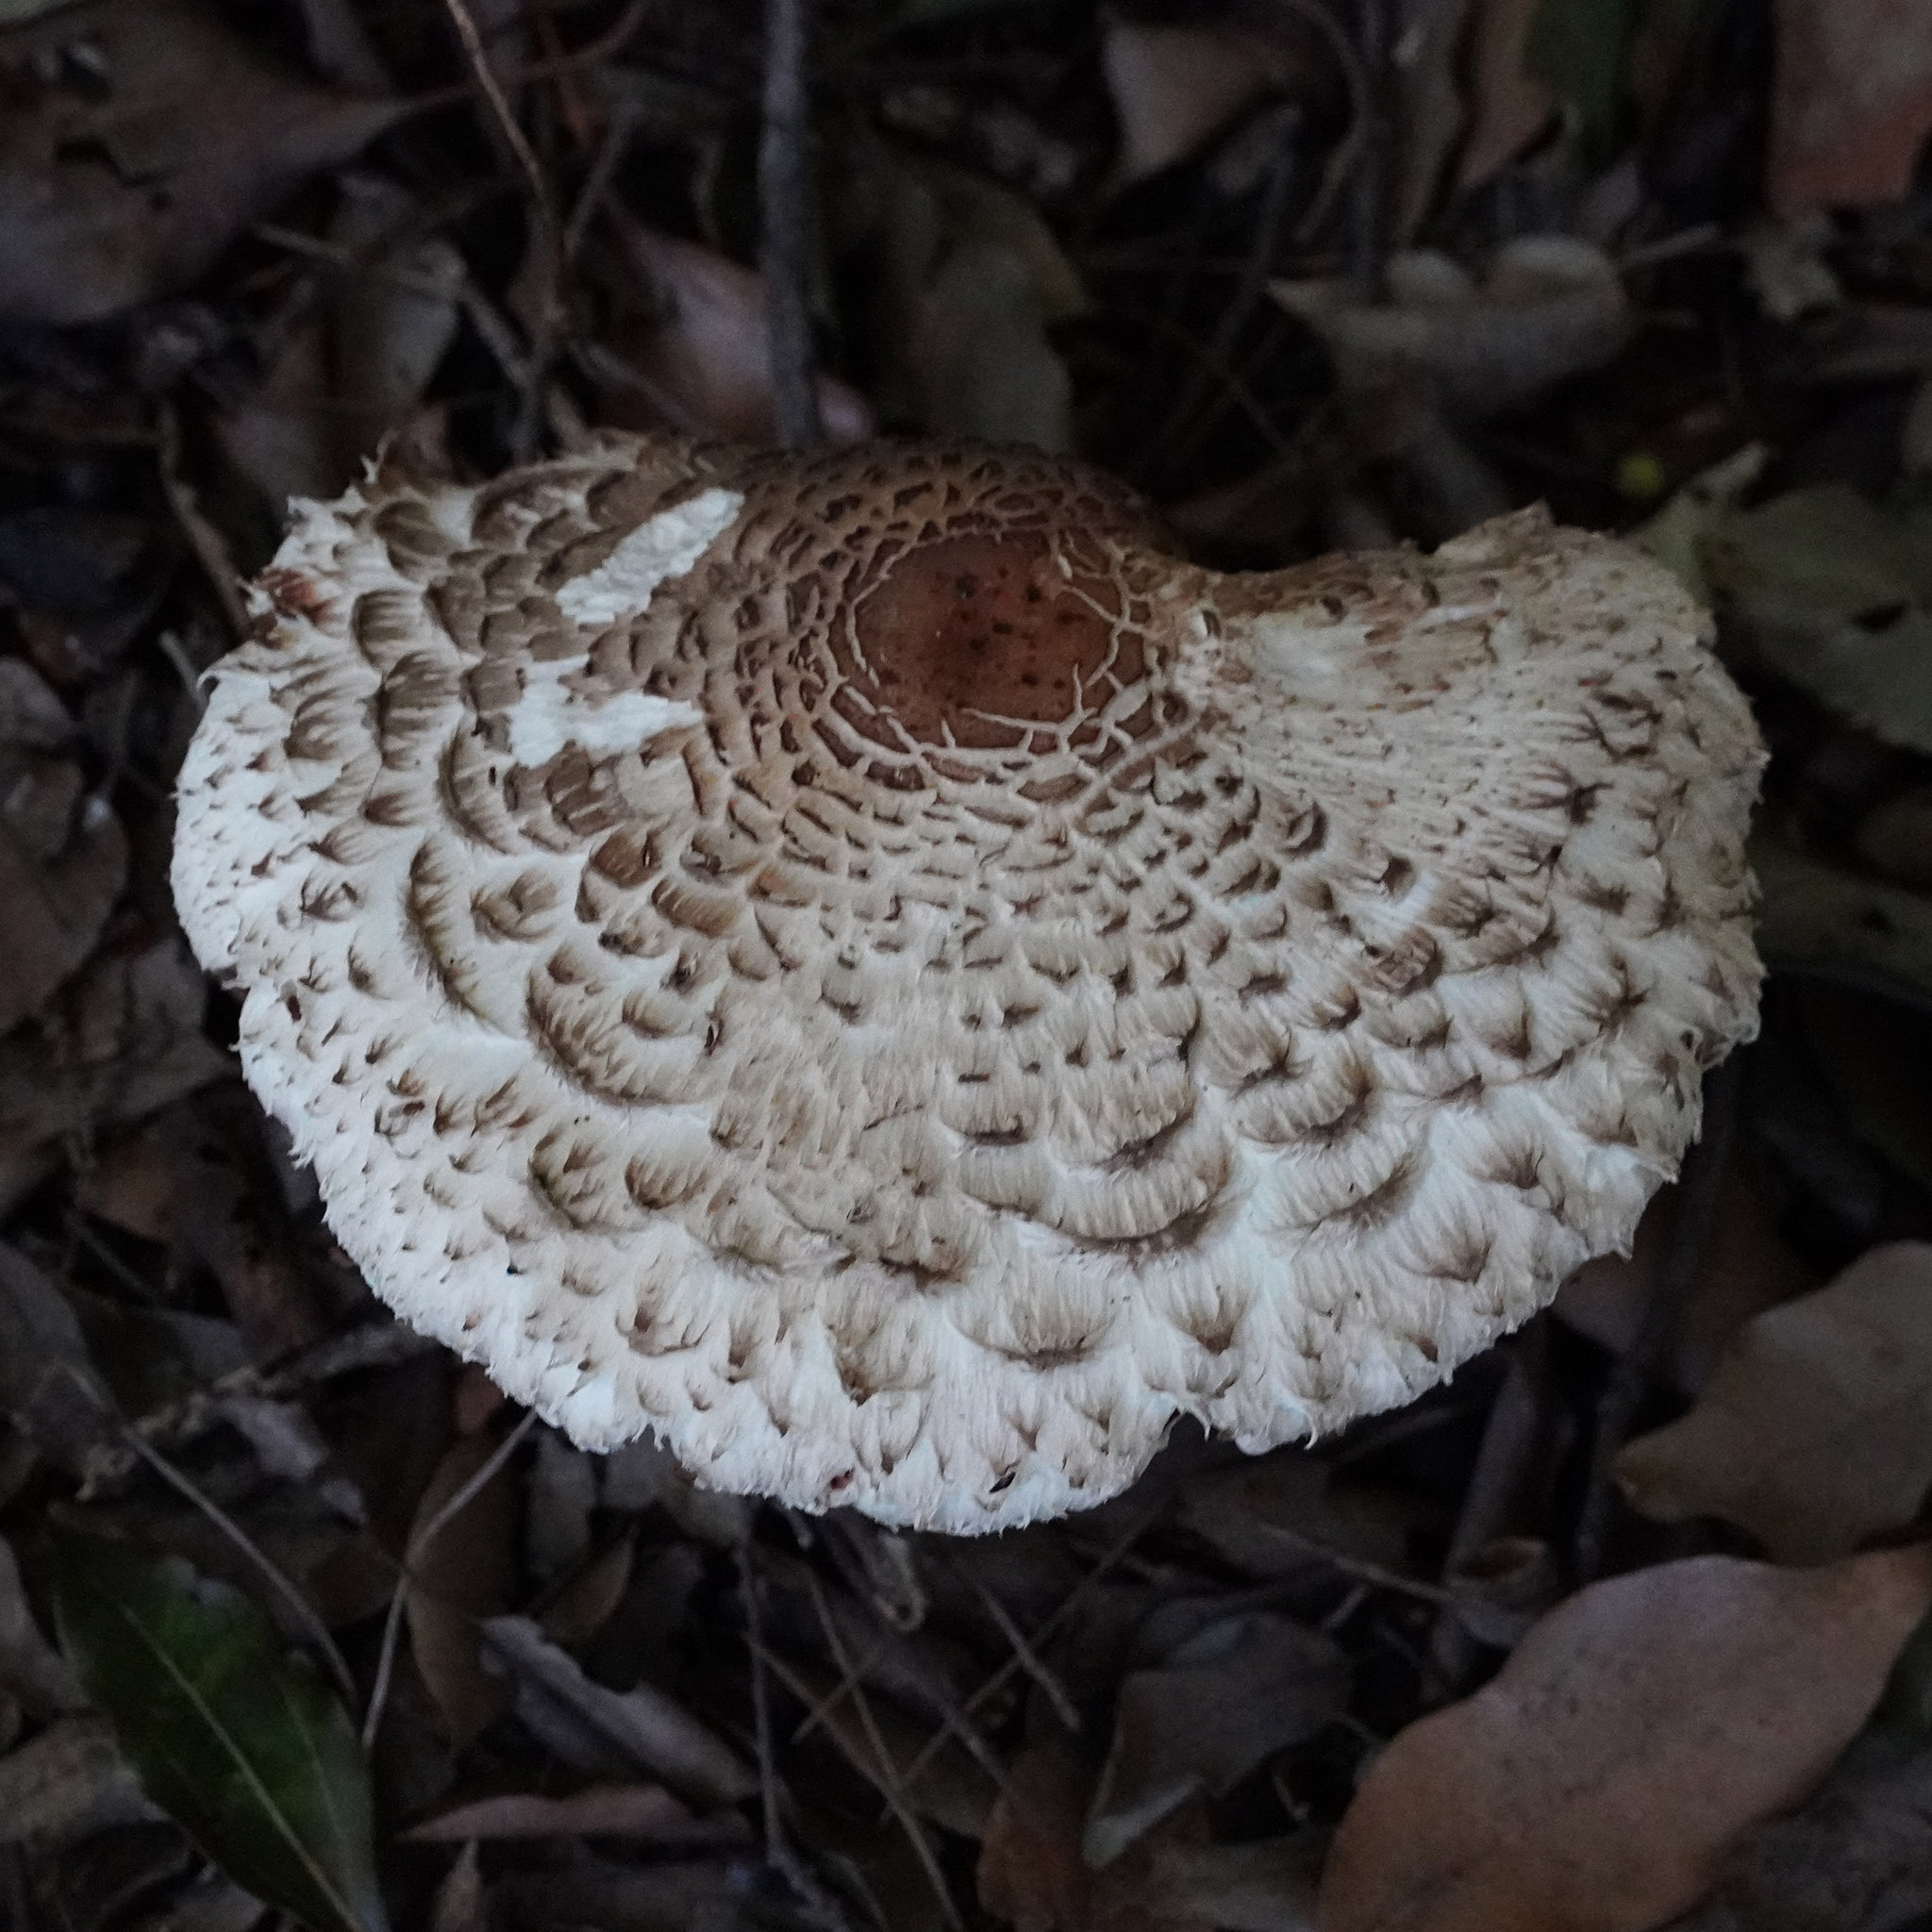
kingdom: Fungi
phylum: Basidiomycota
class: Agaricomycetes
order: Agaricales
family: Agaricaceae
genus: Chlorophyllum
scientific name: Chlorophyllum brunneum
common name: Brown parasol
